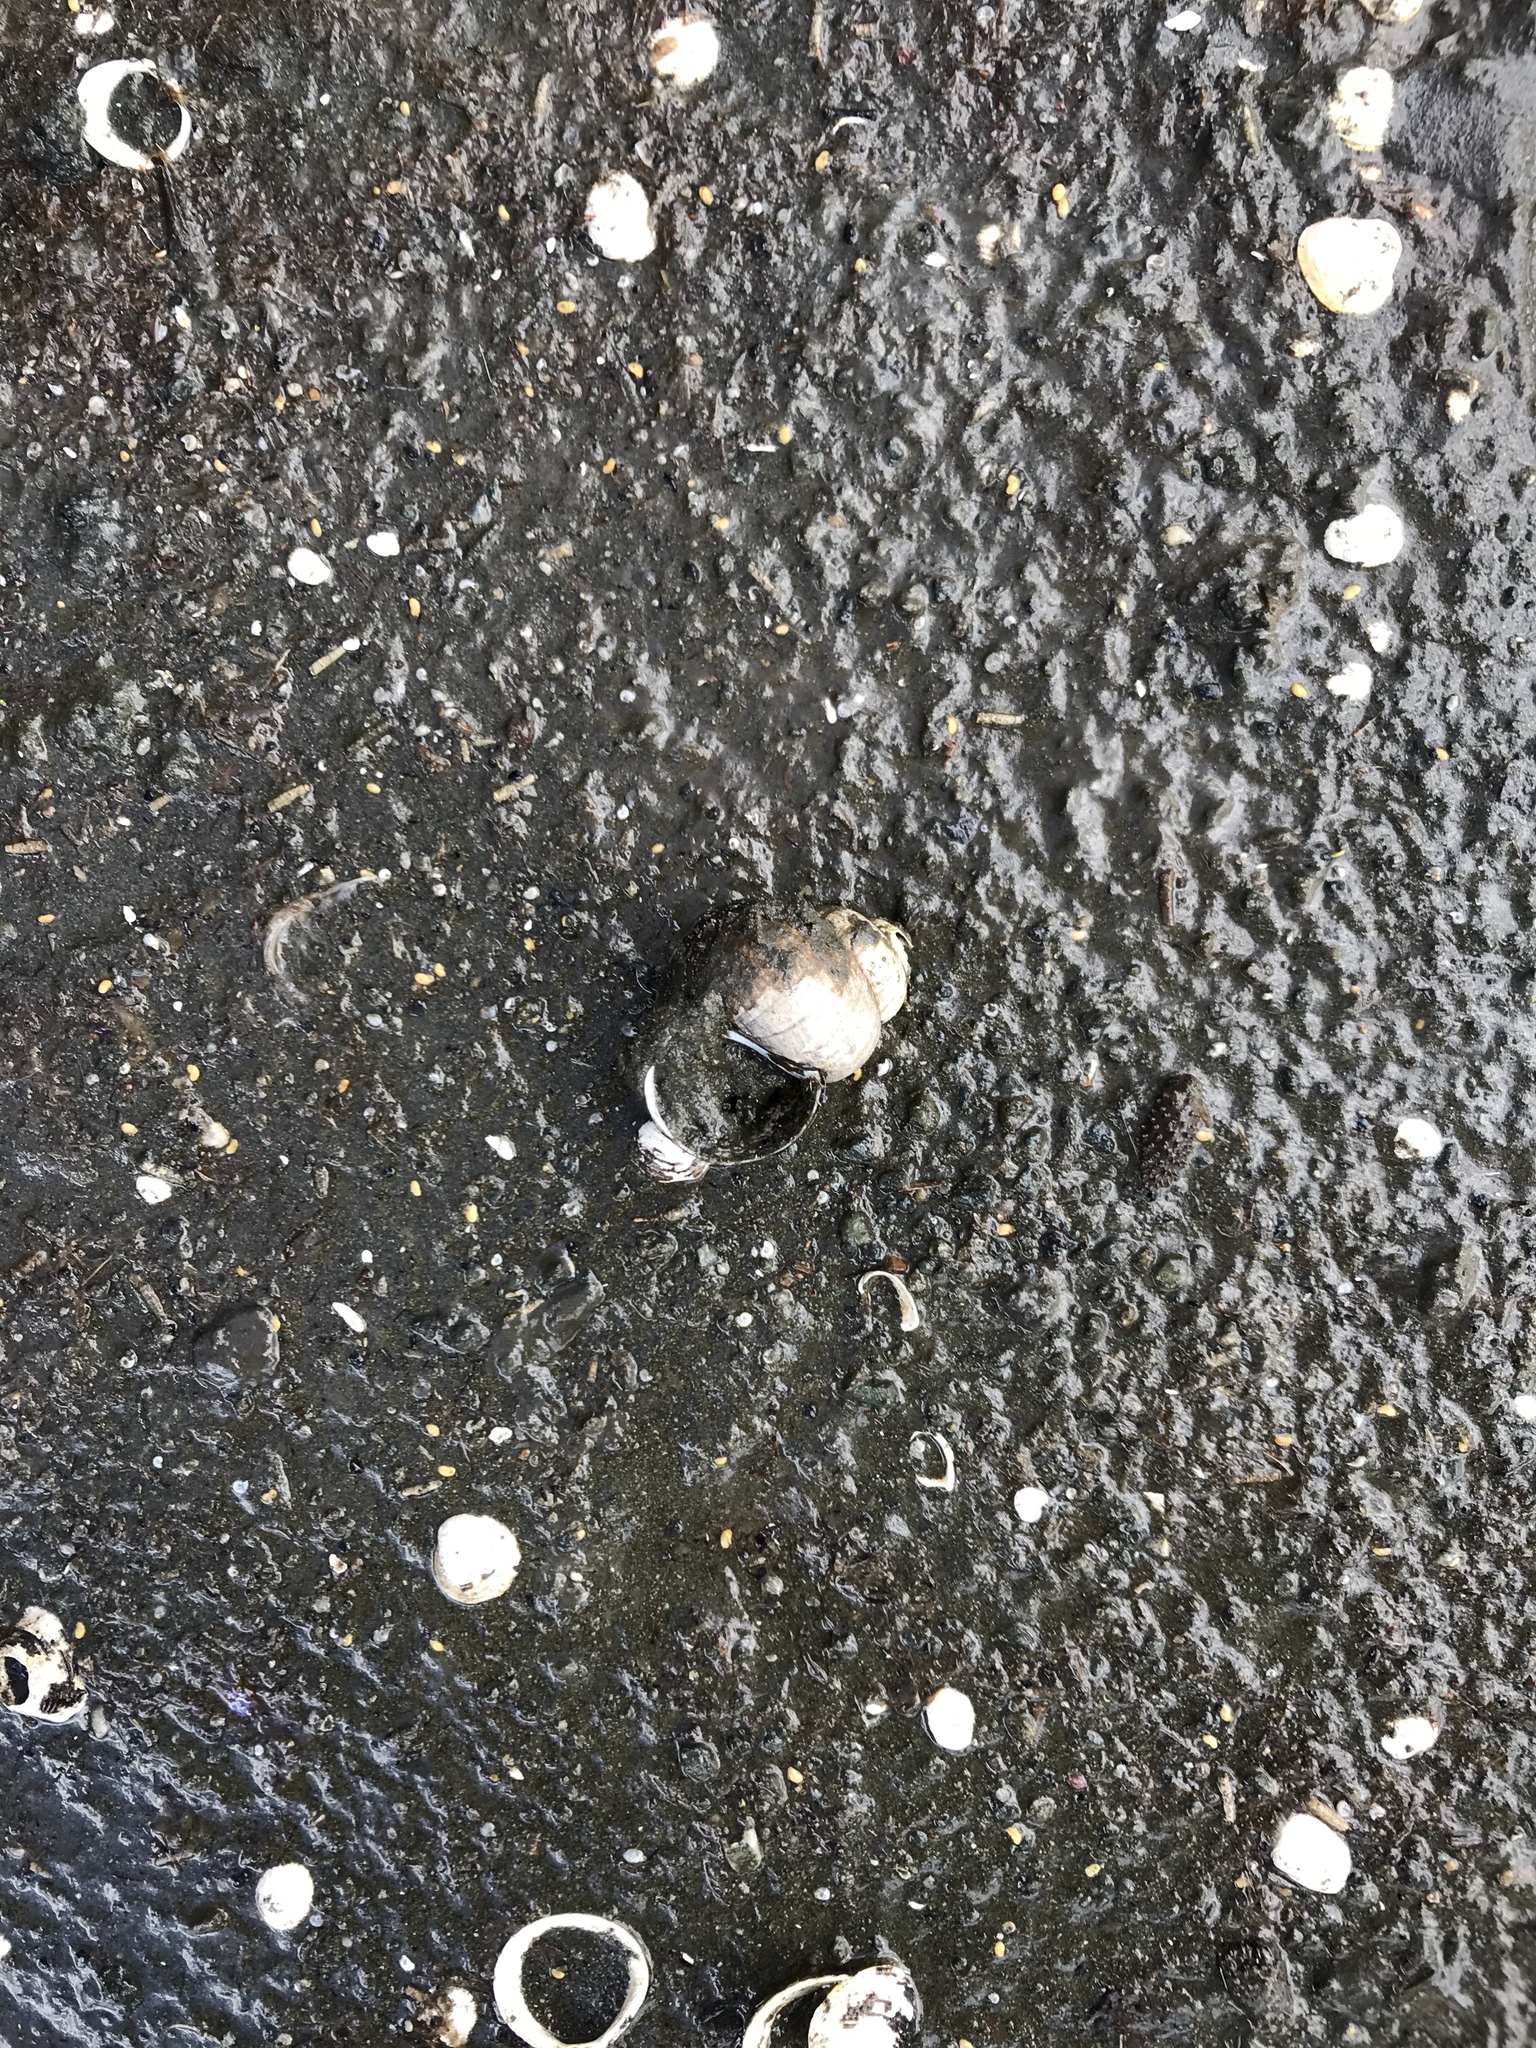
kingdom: Animalia
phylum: Mollusca
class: Gastropoda
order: Architaenioglossa
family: Viviparidae
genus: Cipangopaludina
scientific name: Cipangopaludina chinensis
